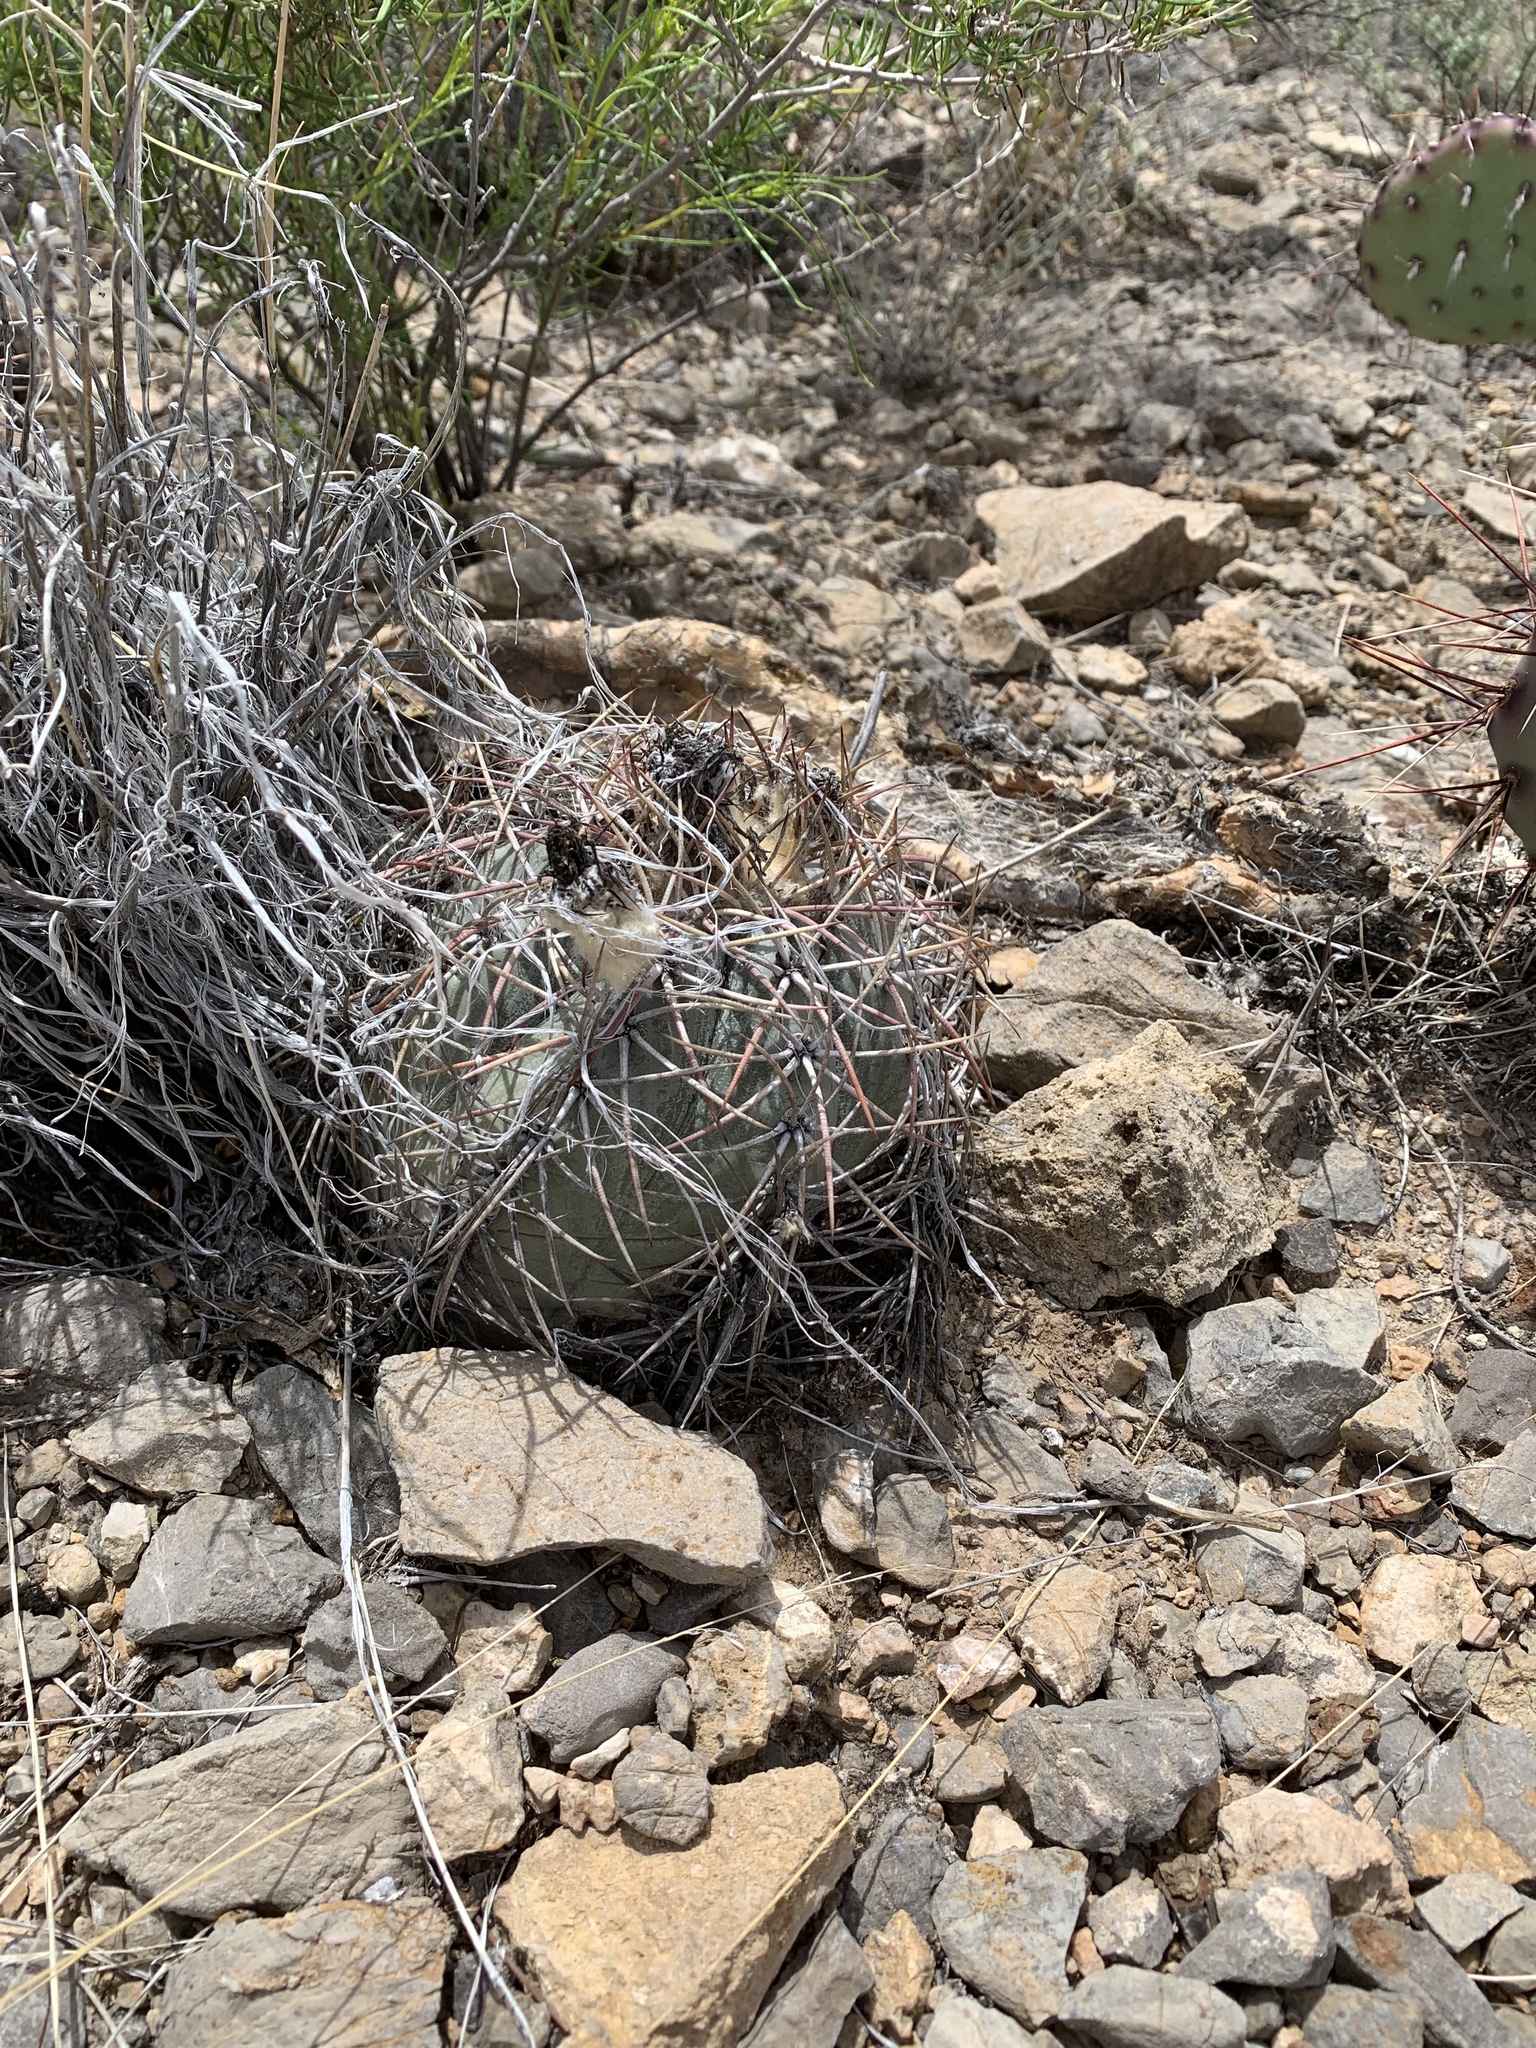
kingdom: Plantae
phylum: Tracheophyta
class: Magnoliopsida
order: Caryophyllales
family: Cactaceae
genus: Echinocactus
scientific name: Echinocactus horizonthalonius
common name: Devilshead
